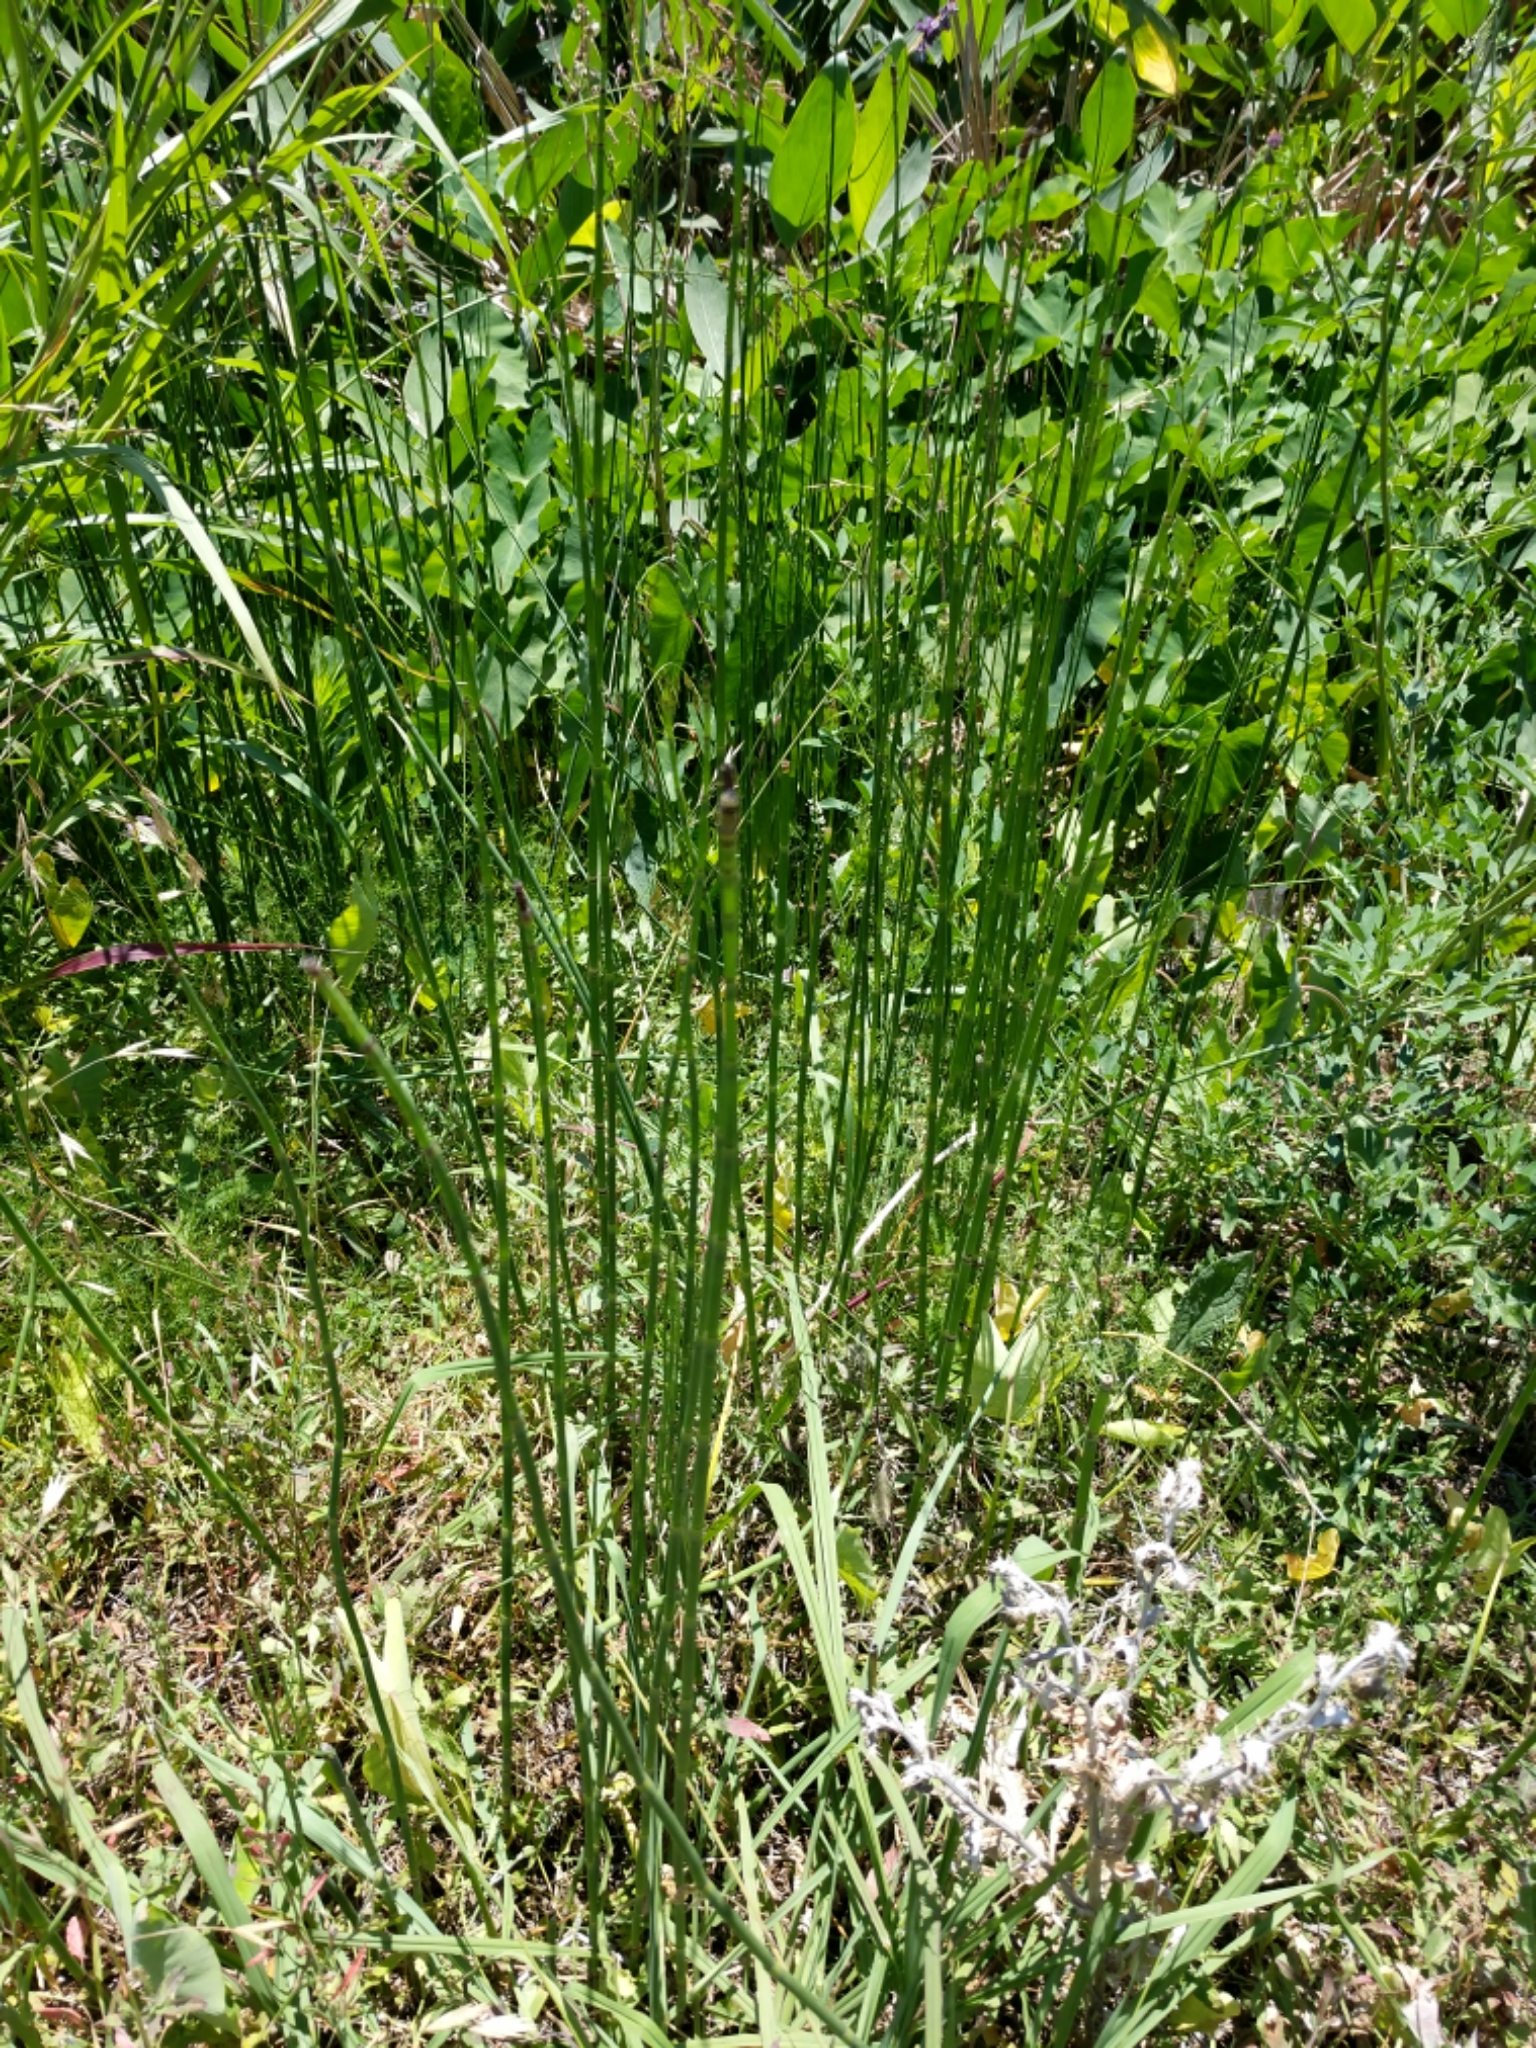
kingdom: Plantae
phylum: Tracheophyta
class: Polypodiopsida
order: Equisetales
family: Equisetaceae
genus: Equisetum
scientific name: Equisetum laevigatum
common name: Smooth scouring-rush
